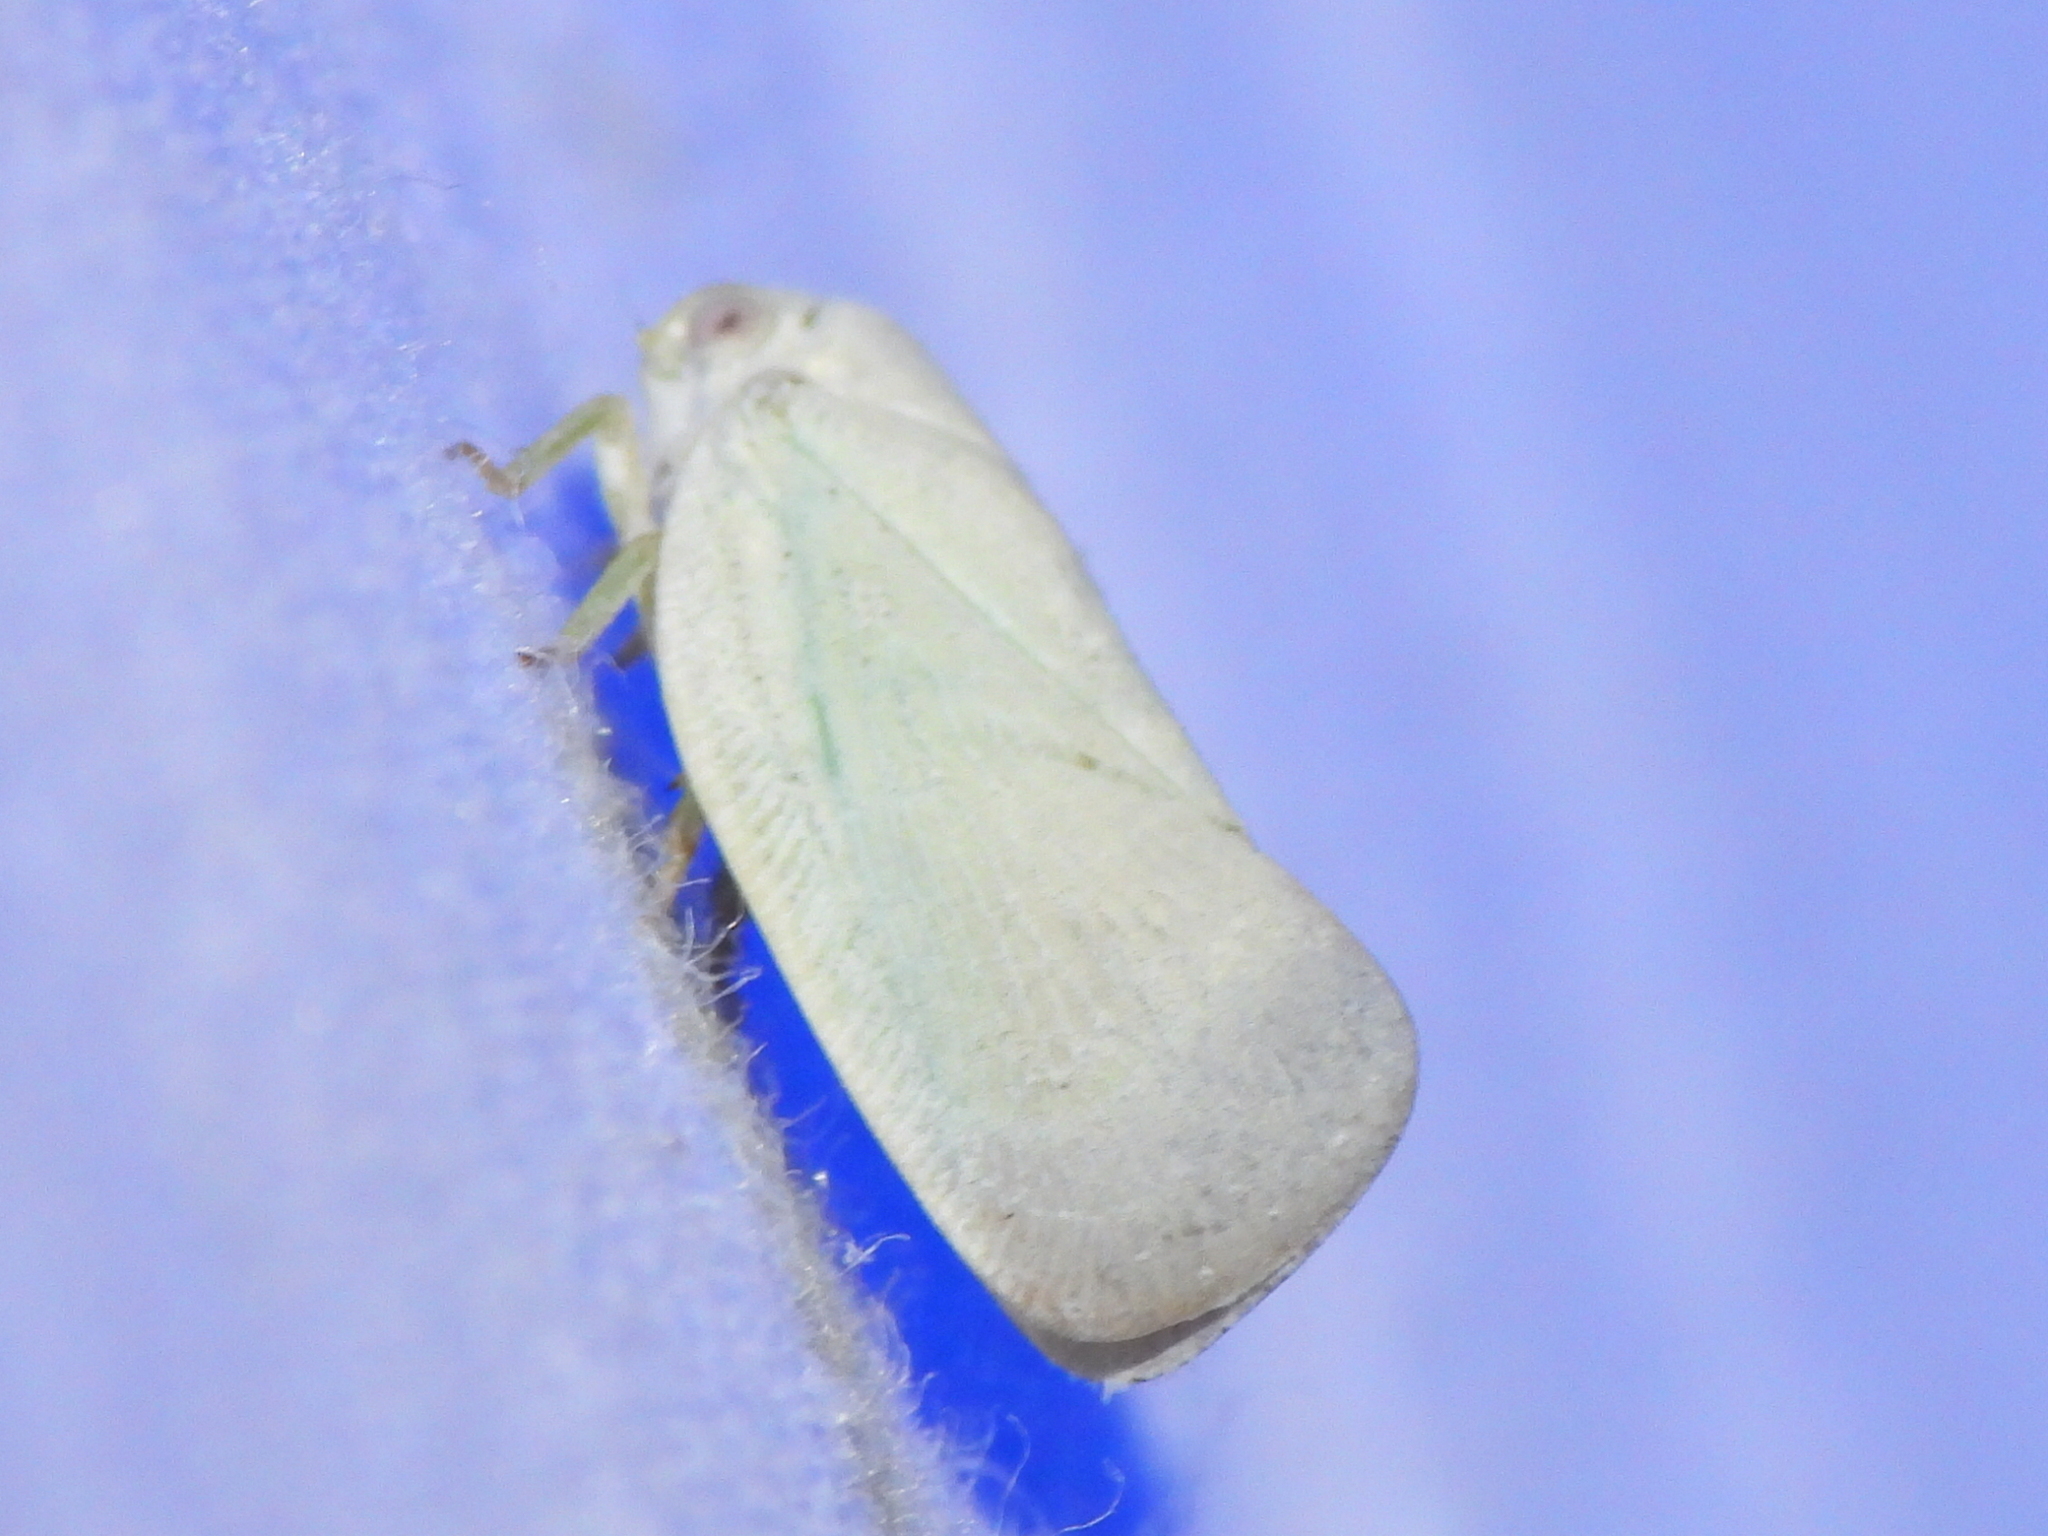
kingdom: Animalia
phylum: Arthropoda
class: Insecta
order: Hemiptera
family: Flatidae
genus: Flatormenis
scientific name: Flatormenis saucia
